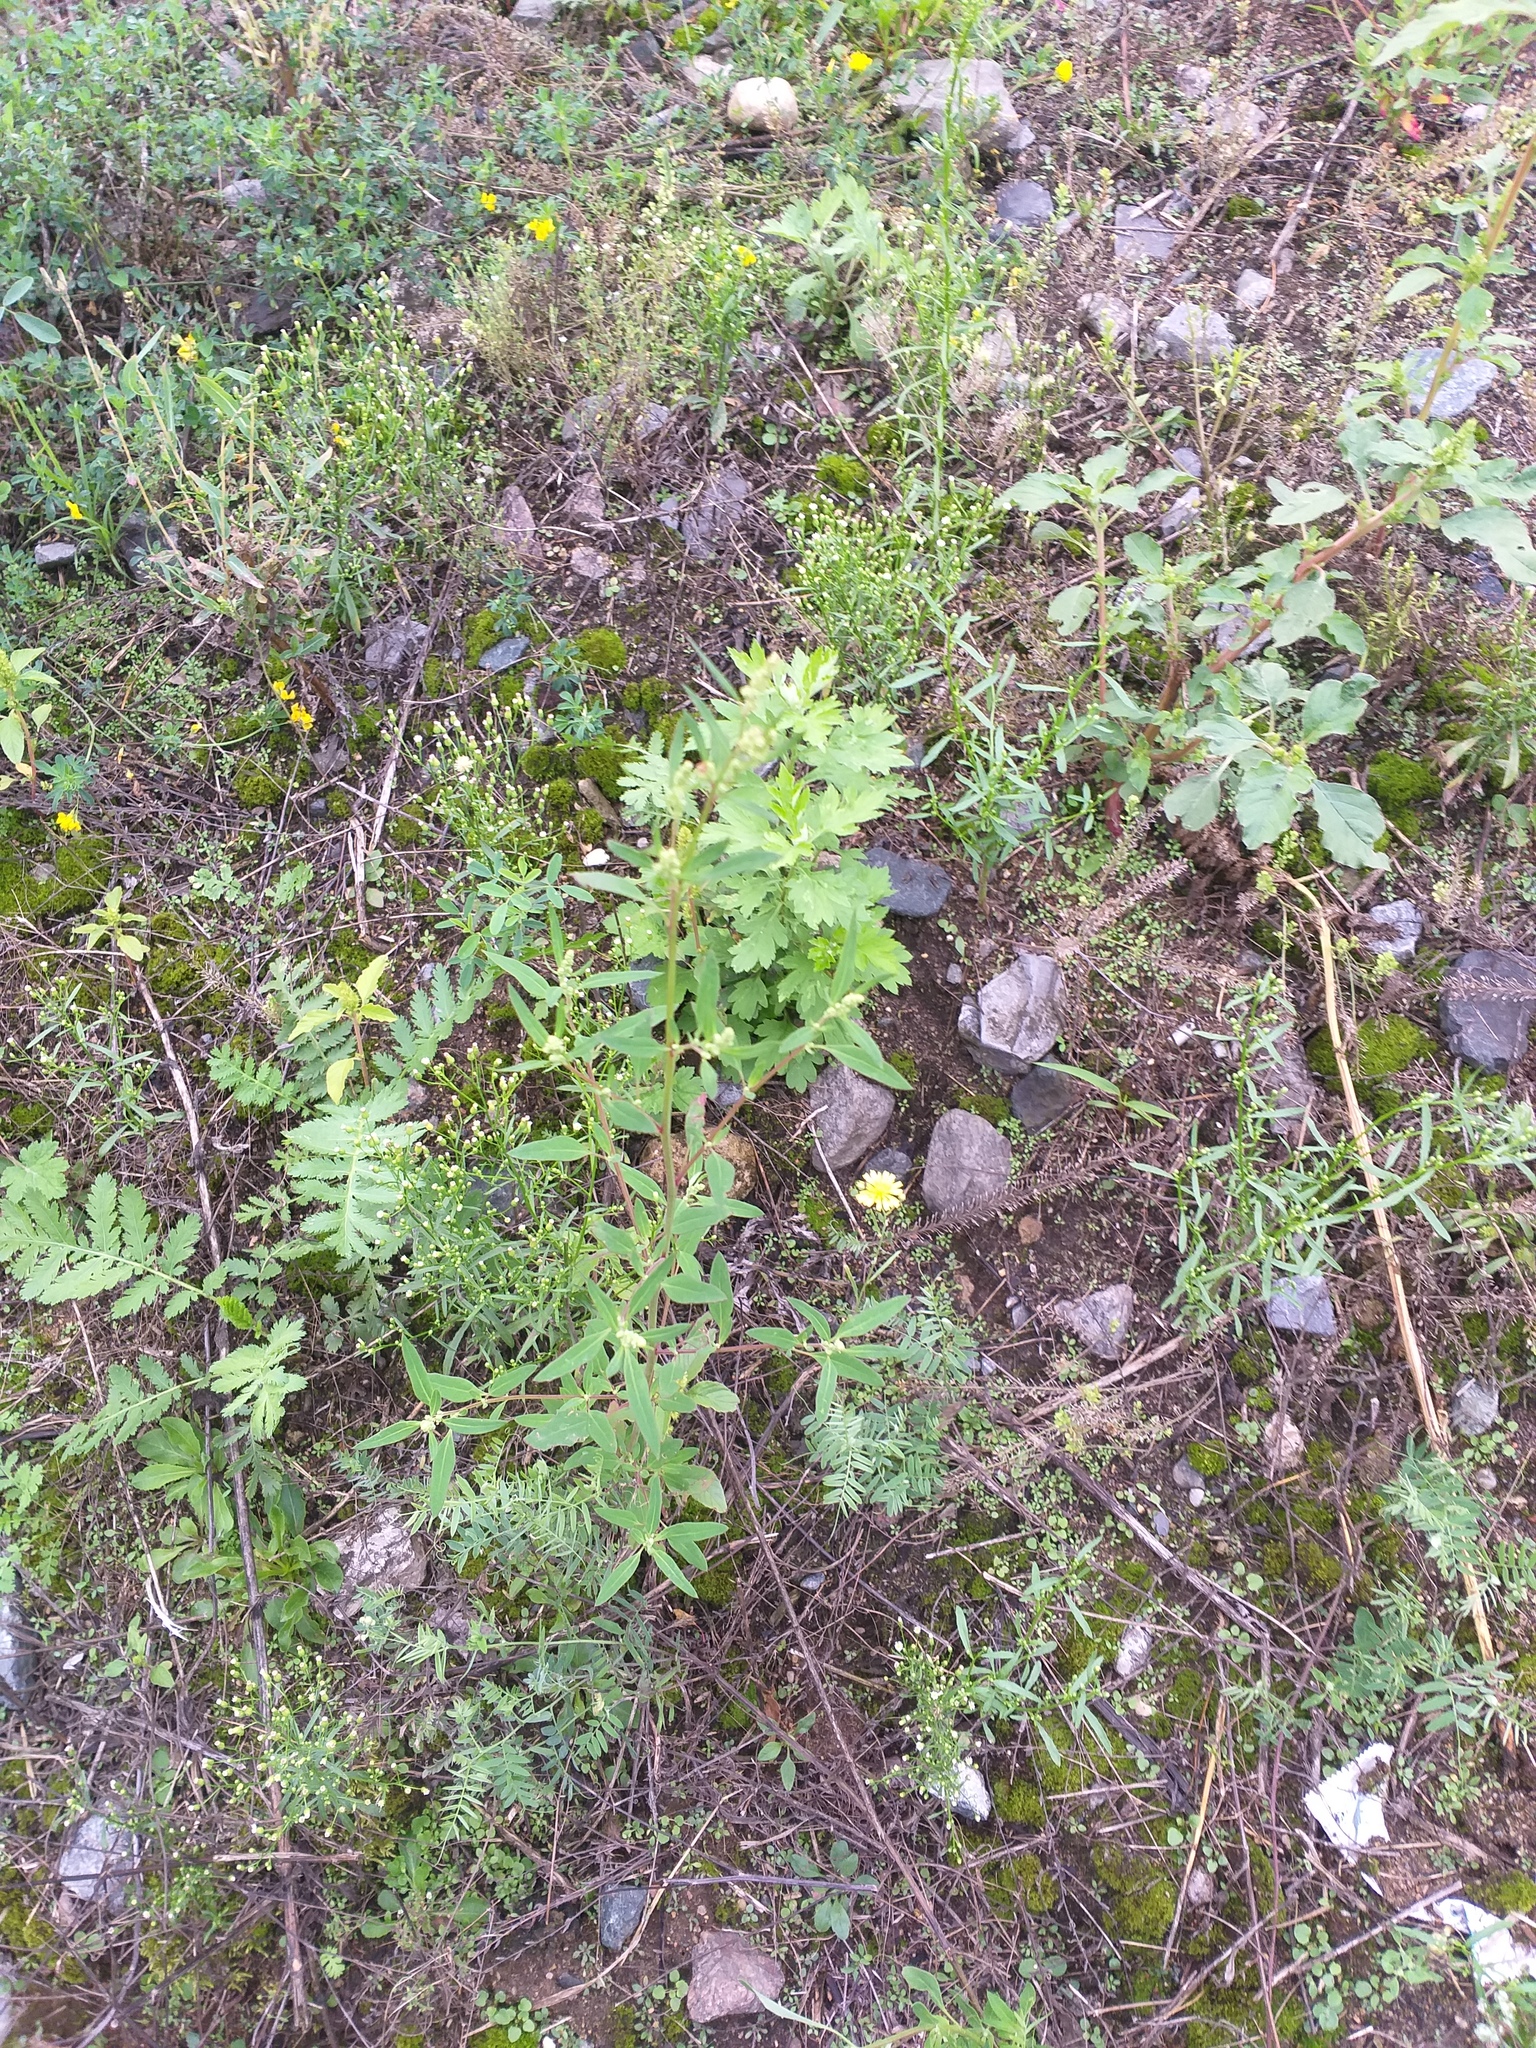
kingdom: Plantae
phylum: Tracheophyta
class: Magnoliopsida
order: Caryophyllales
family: Amaranthaceae
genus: Chenopodium
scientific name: Chenopodium betaceum
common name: Striped goosefoot
